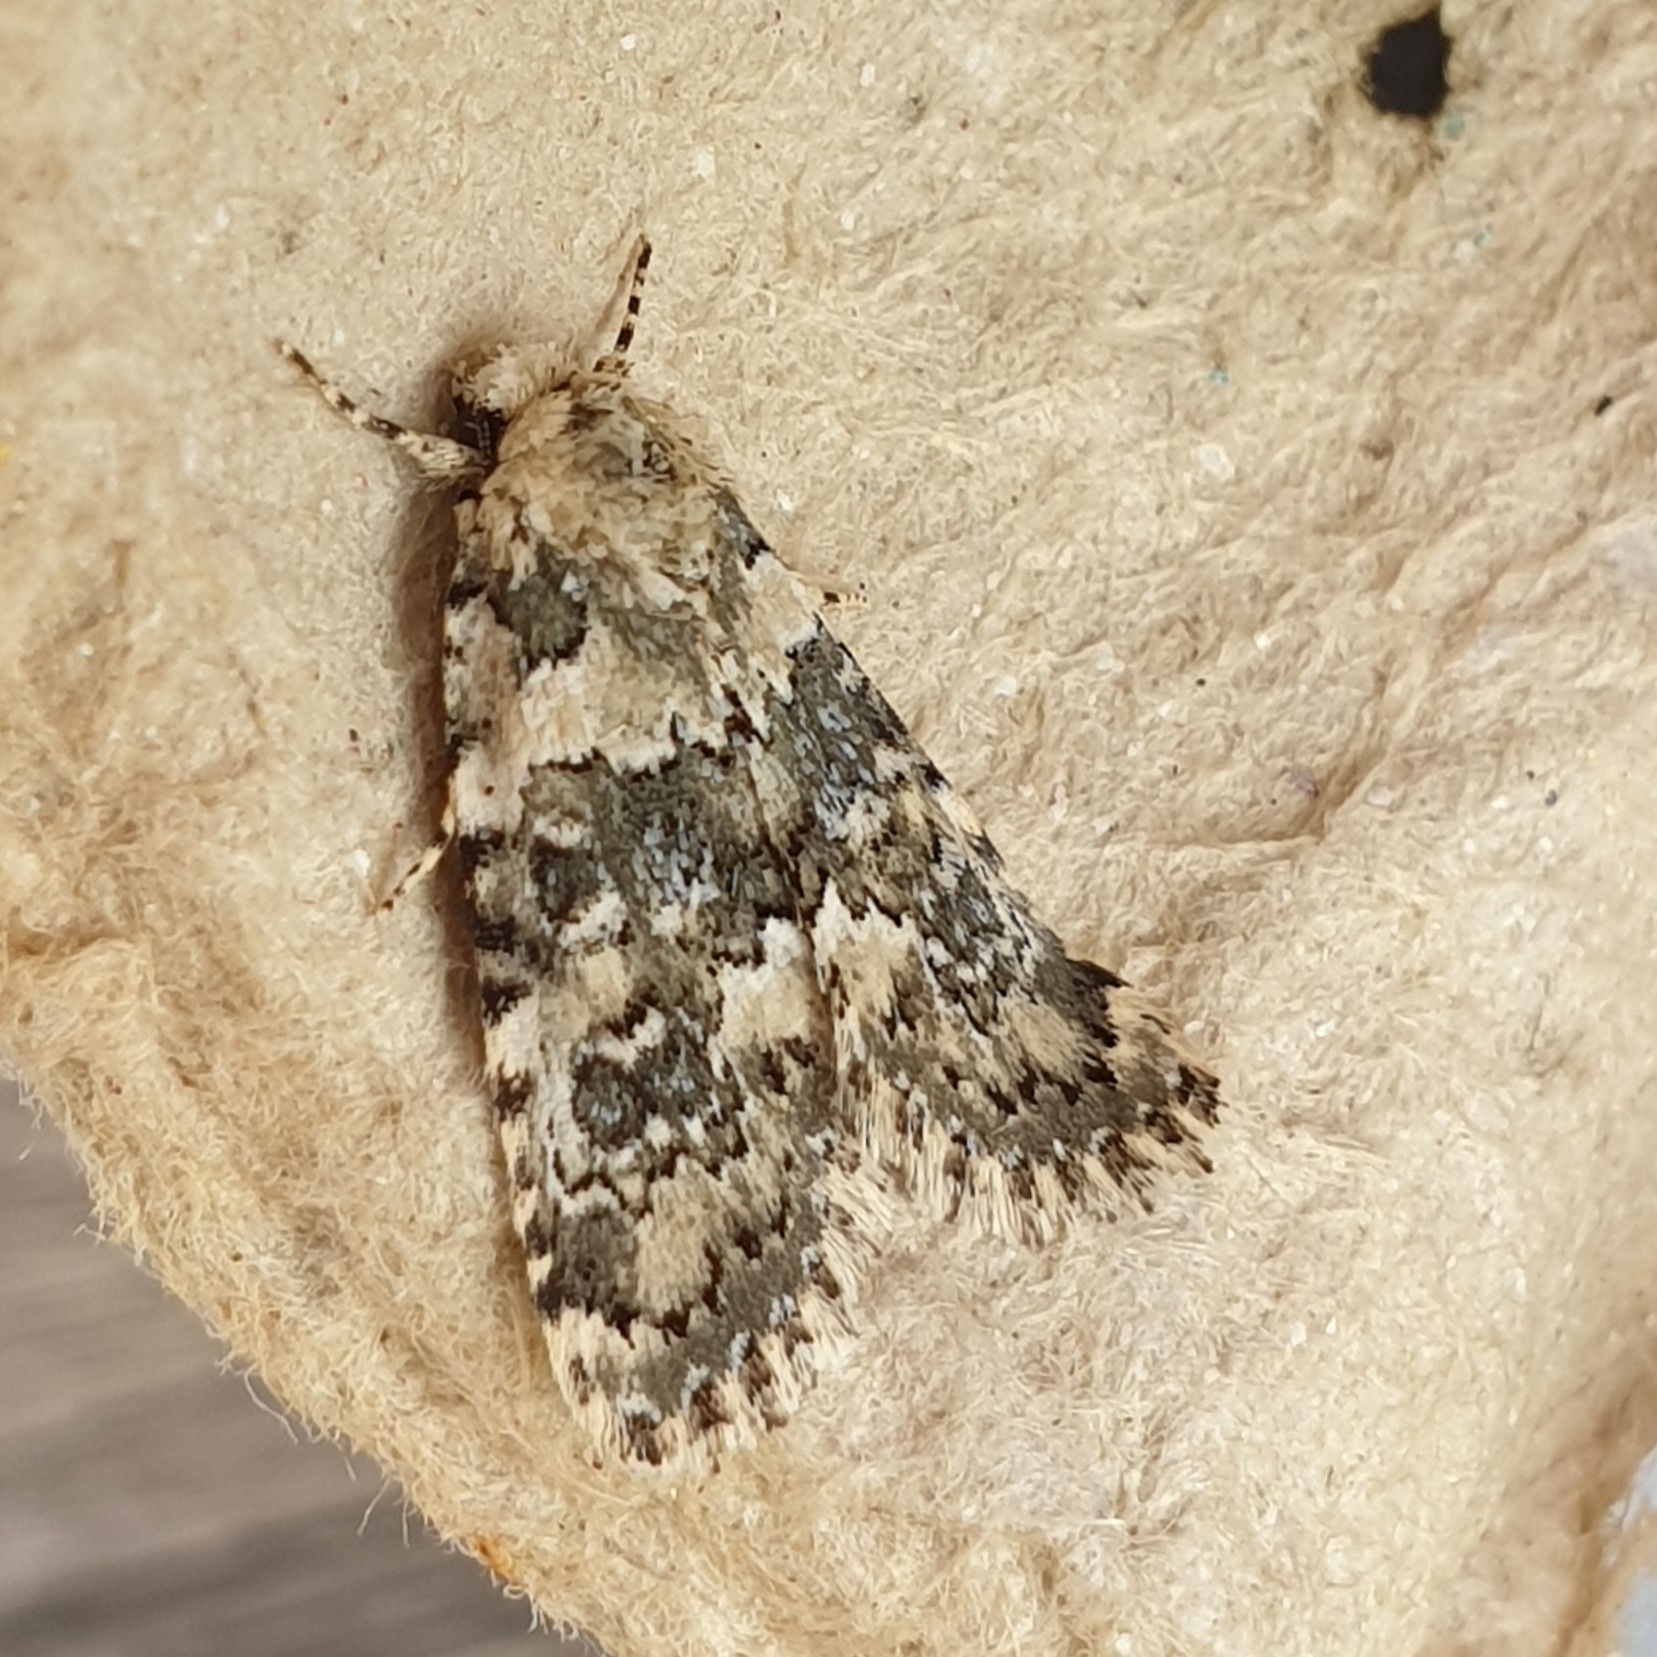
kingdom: Animalia
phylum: Arthropoda
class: Insecta
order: Lepidoptera
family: Noctuidae
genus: Bryophila
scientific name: Bryophila domestica
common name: Marbled beauty
